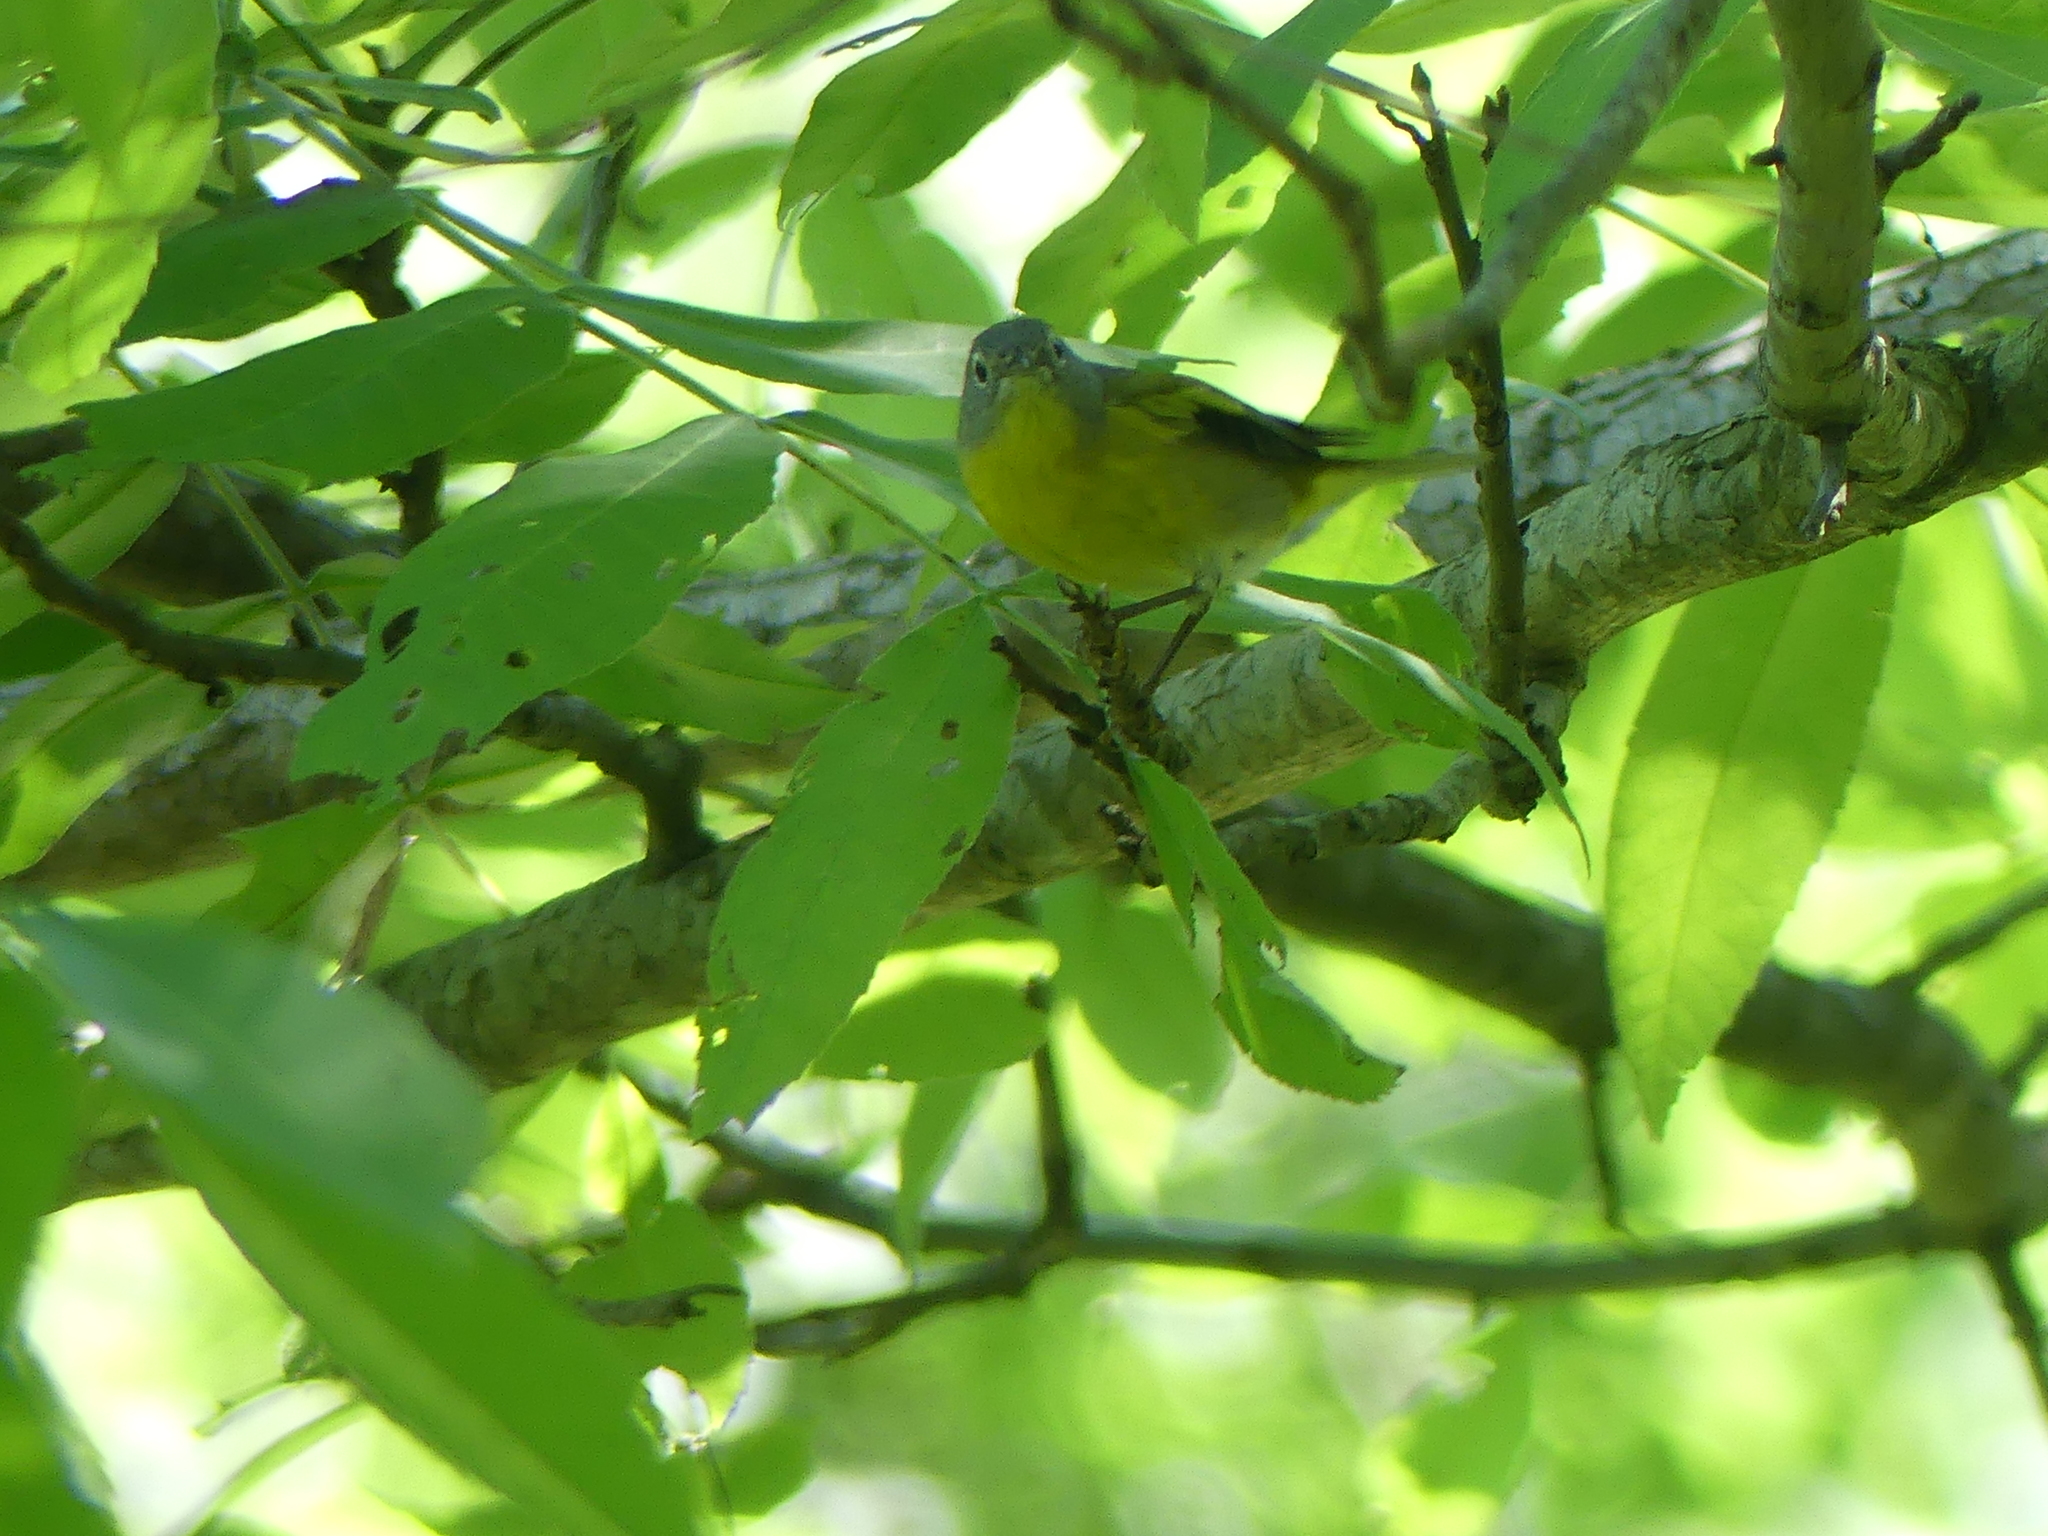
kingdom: Animalia
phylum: Chordata
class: Aves
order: Passeriformes
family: Parulidae
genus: Leiothlypis
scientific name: Leiothlypis ruficapilla
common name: Nashville warbler
